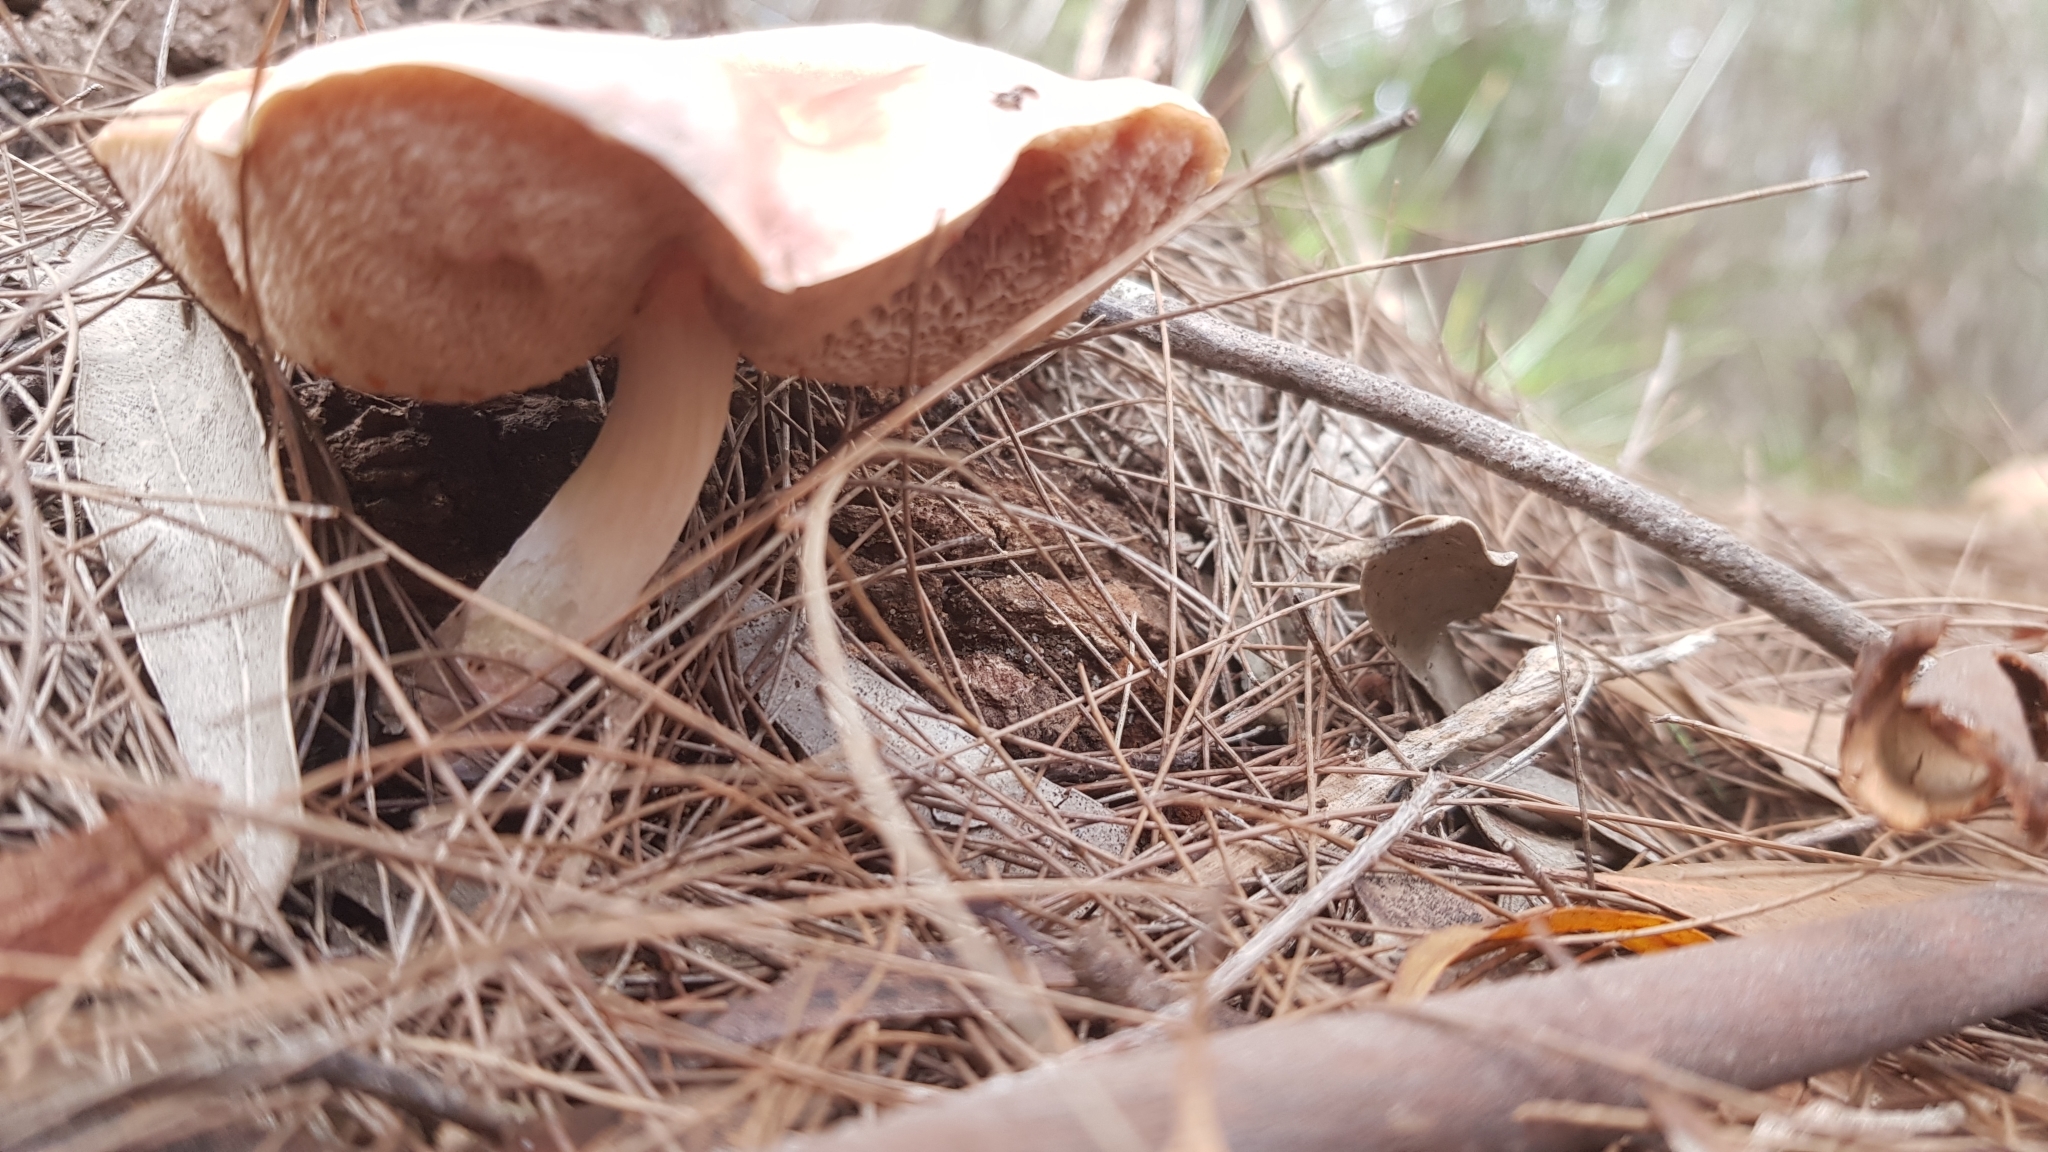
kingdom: Fungi
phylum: Basidiomycota
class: Agaricomycetes
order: Boletales
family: Boletaceae
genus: Fistulinella
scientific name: Fistulinella mollis
